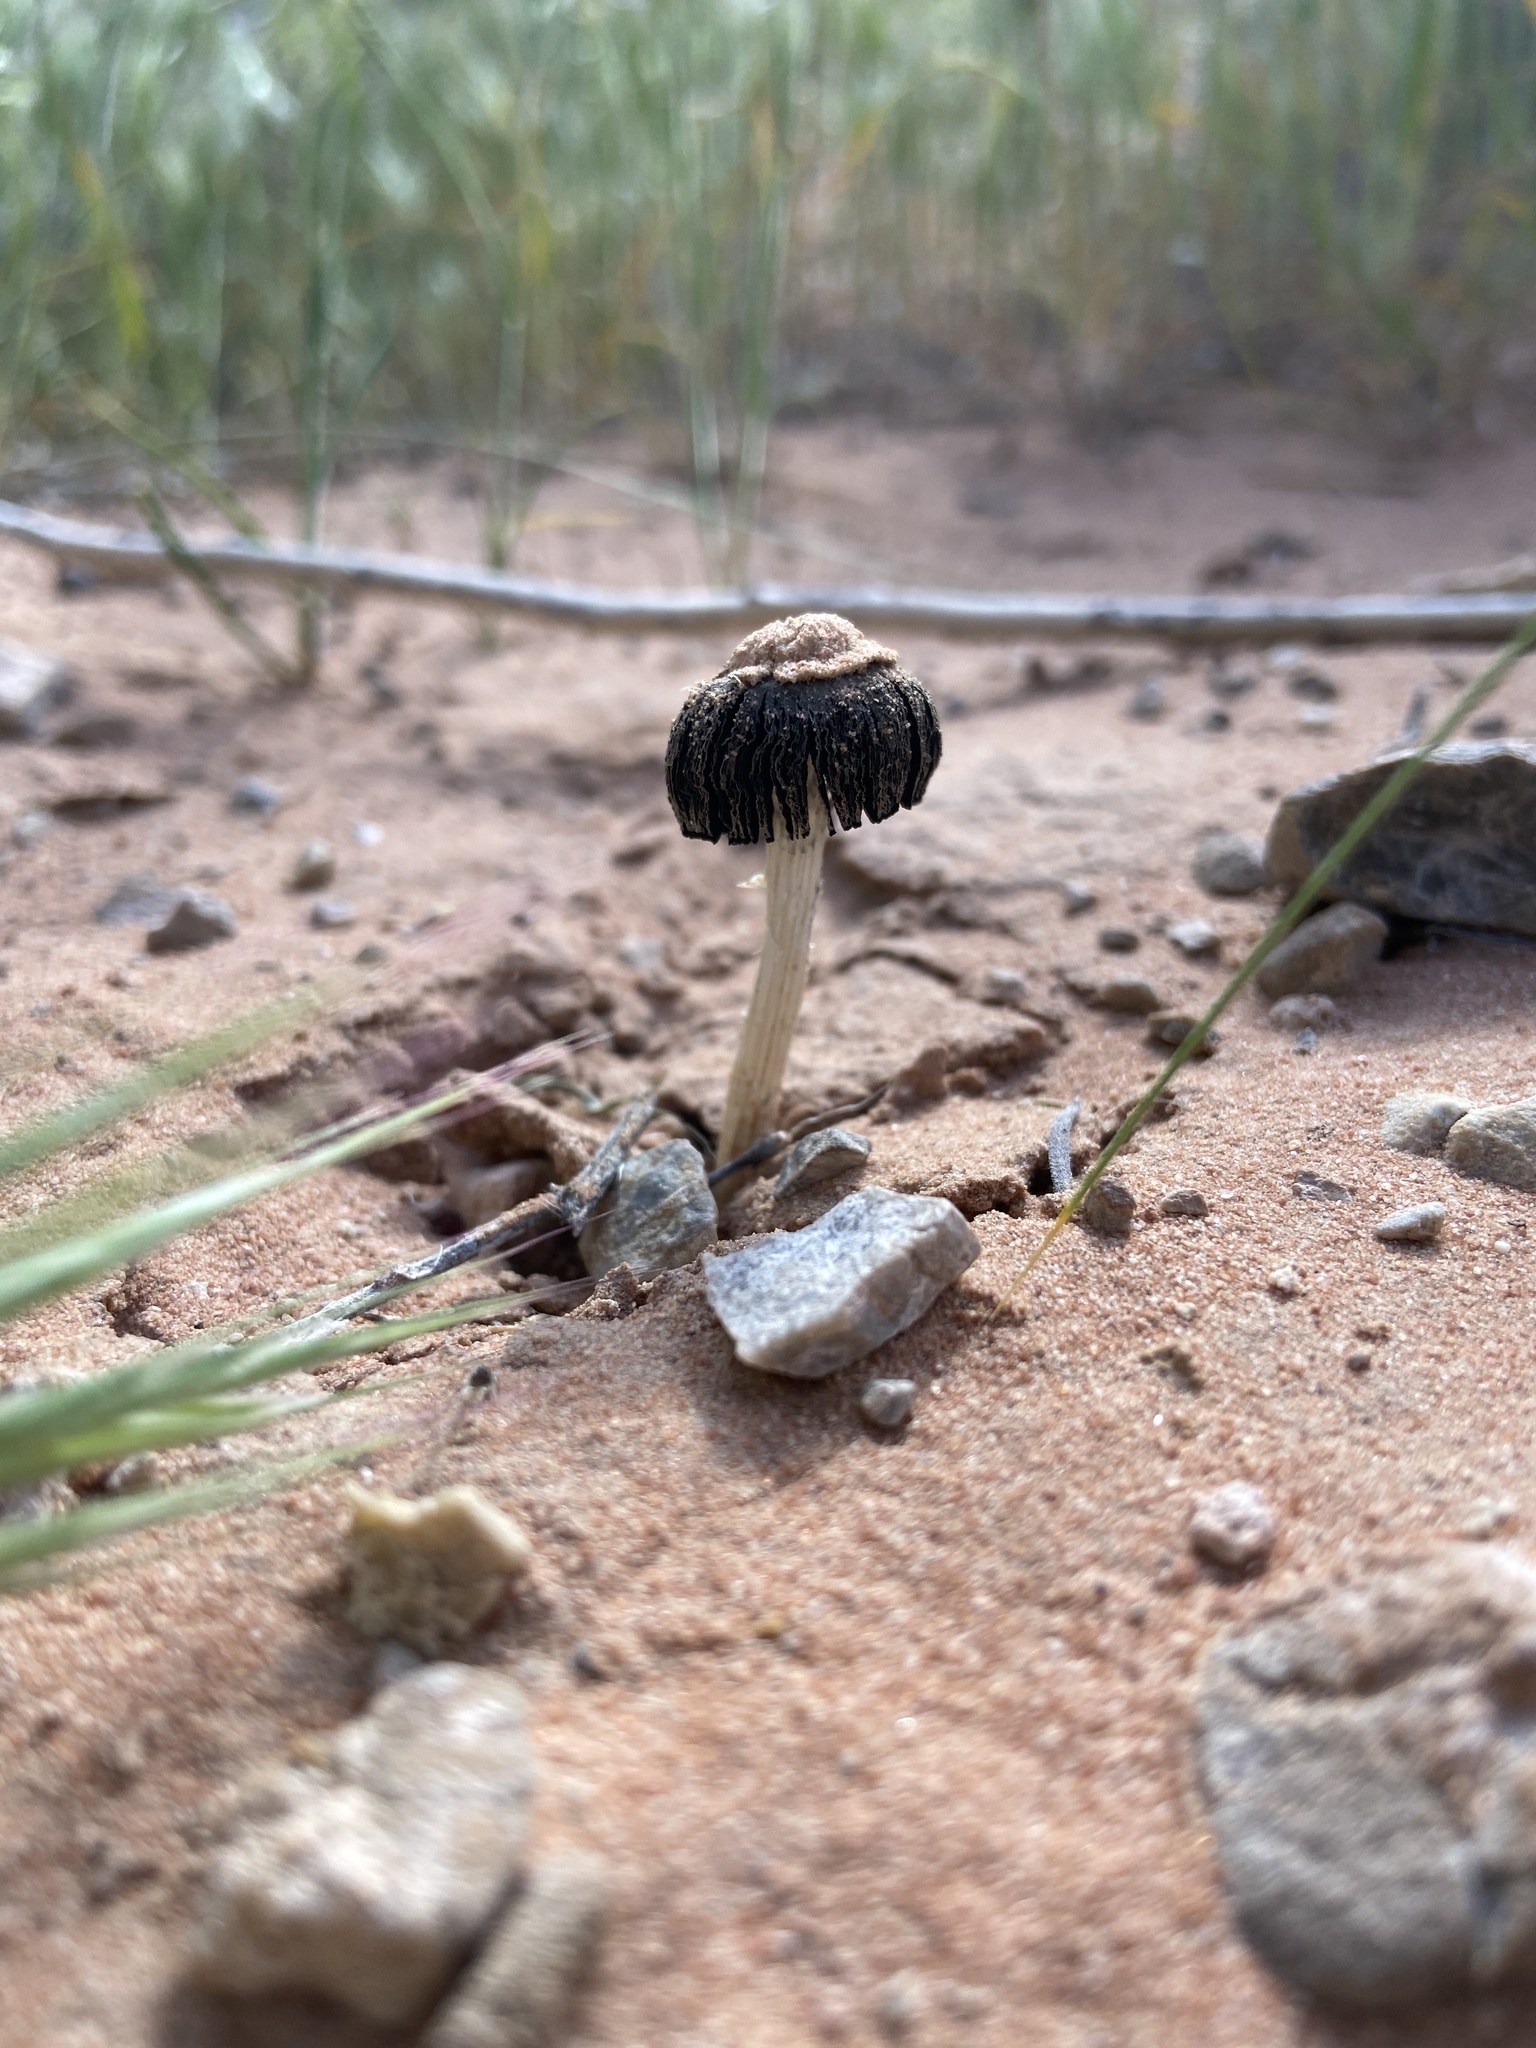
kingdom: Fungi
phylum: Basidiomycota
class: Agaricomycetes
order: Agaricales
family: Agaricaceae
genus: Montagnea
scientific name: Montagnea arenaria
